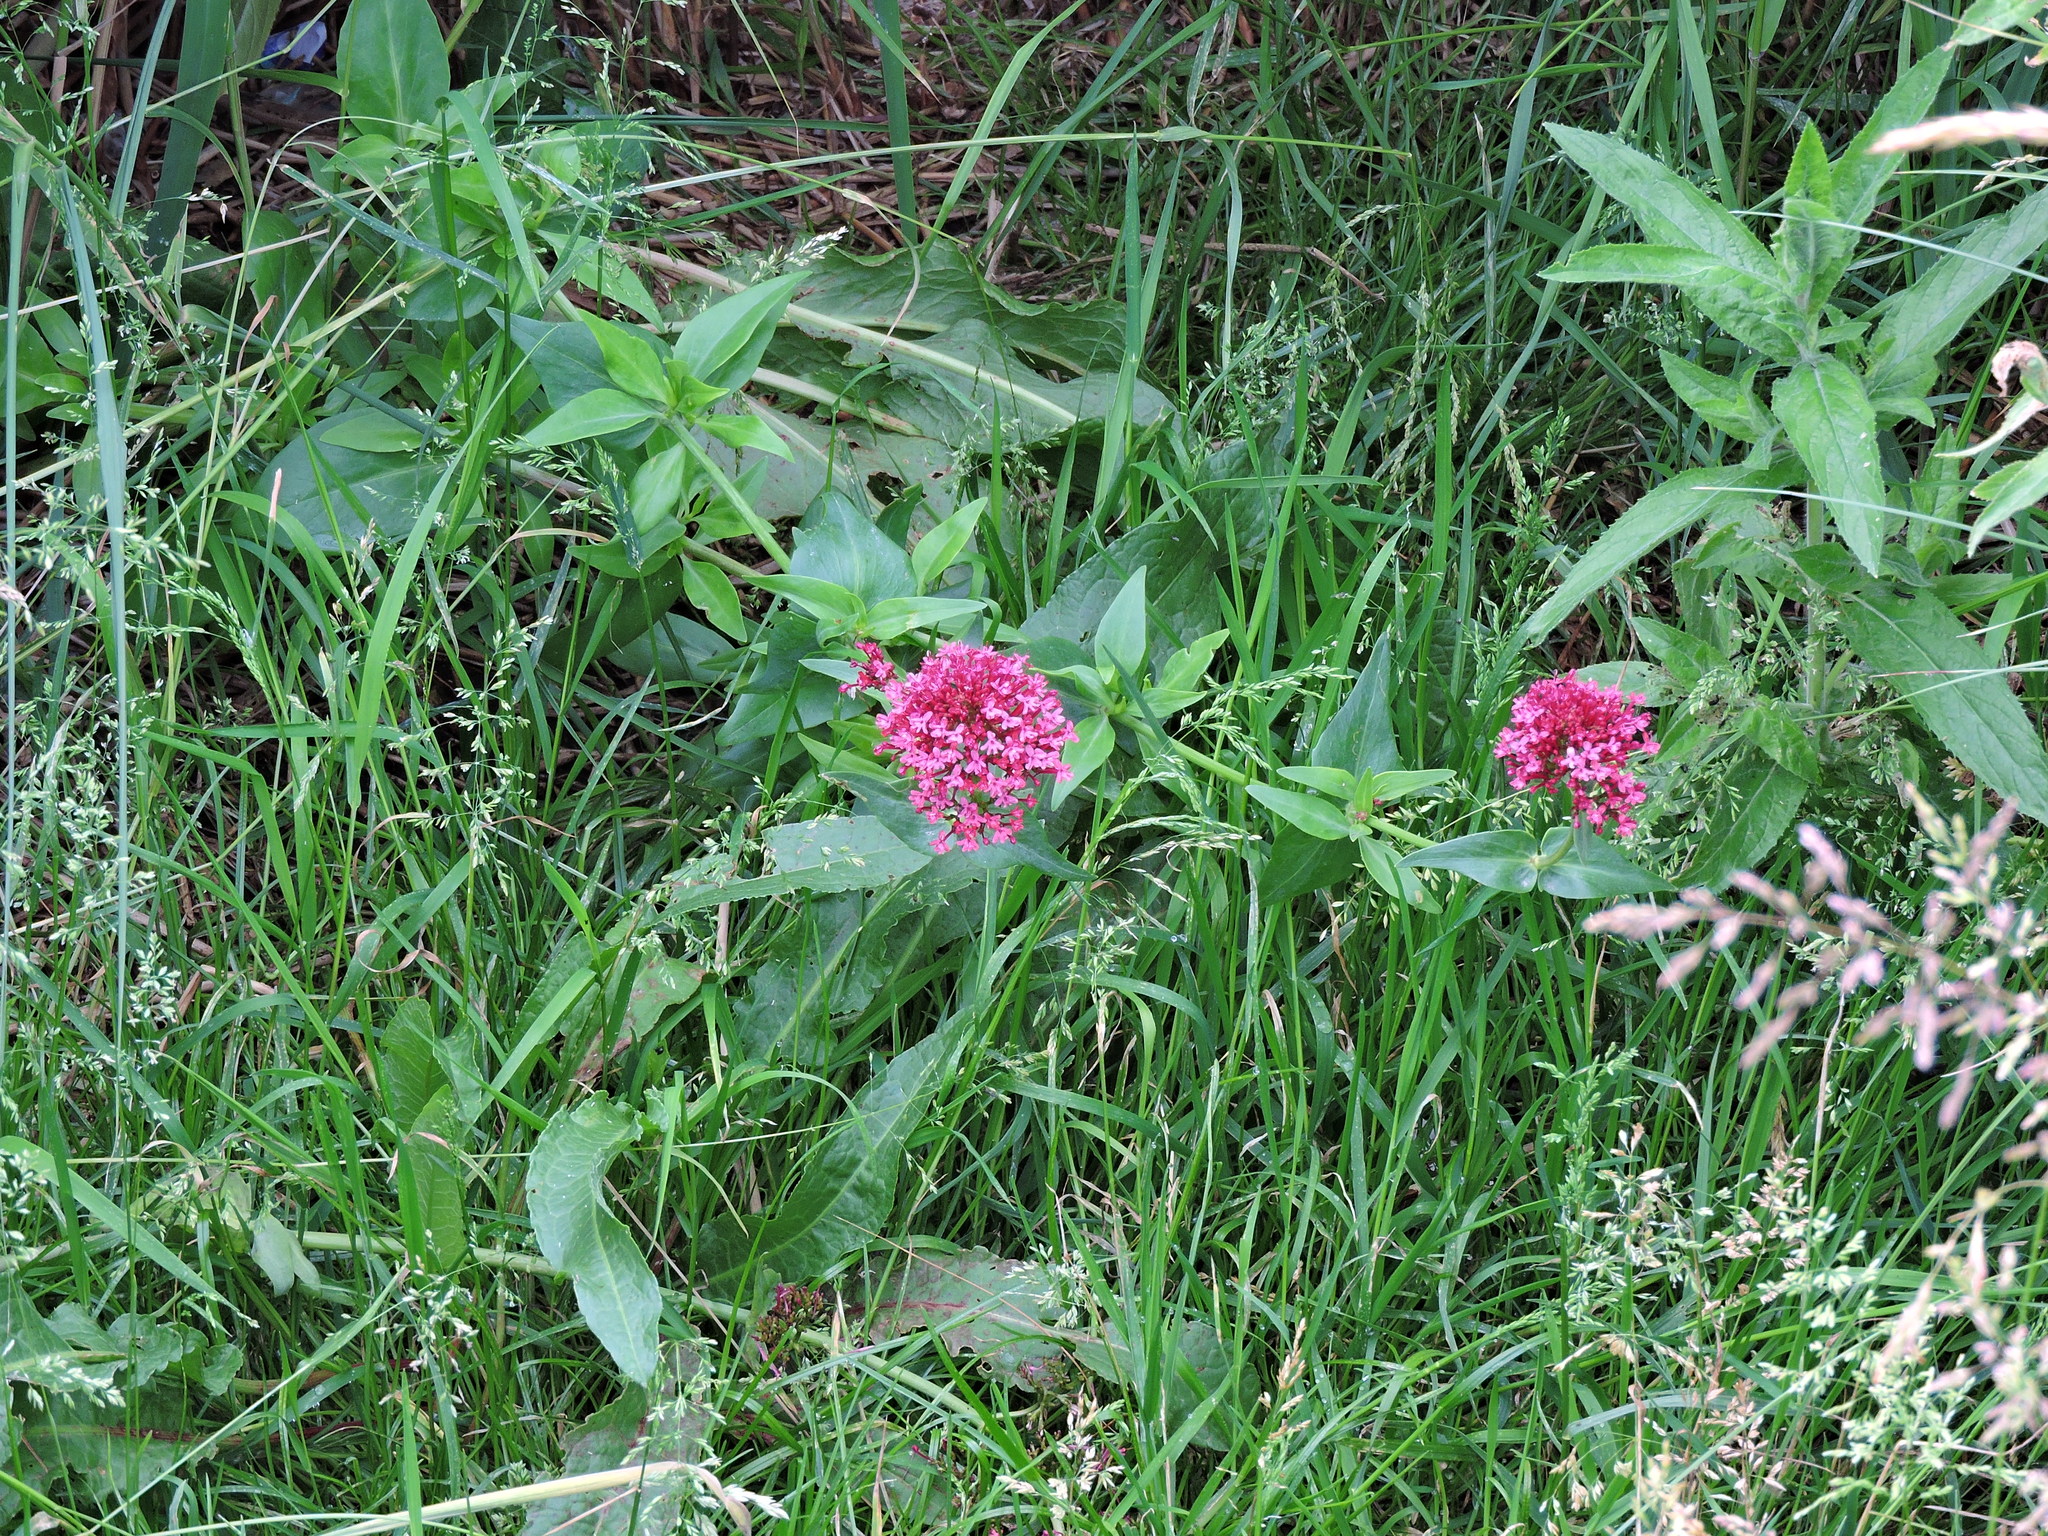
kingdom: Plantae
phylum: Tracheophyta
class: Magnoliopsida
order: Dipsacales
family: Caprifoliaceae
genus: Centranthus
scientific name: Centranthus ruber
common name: Red valerian
